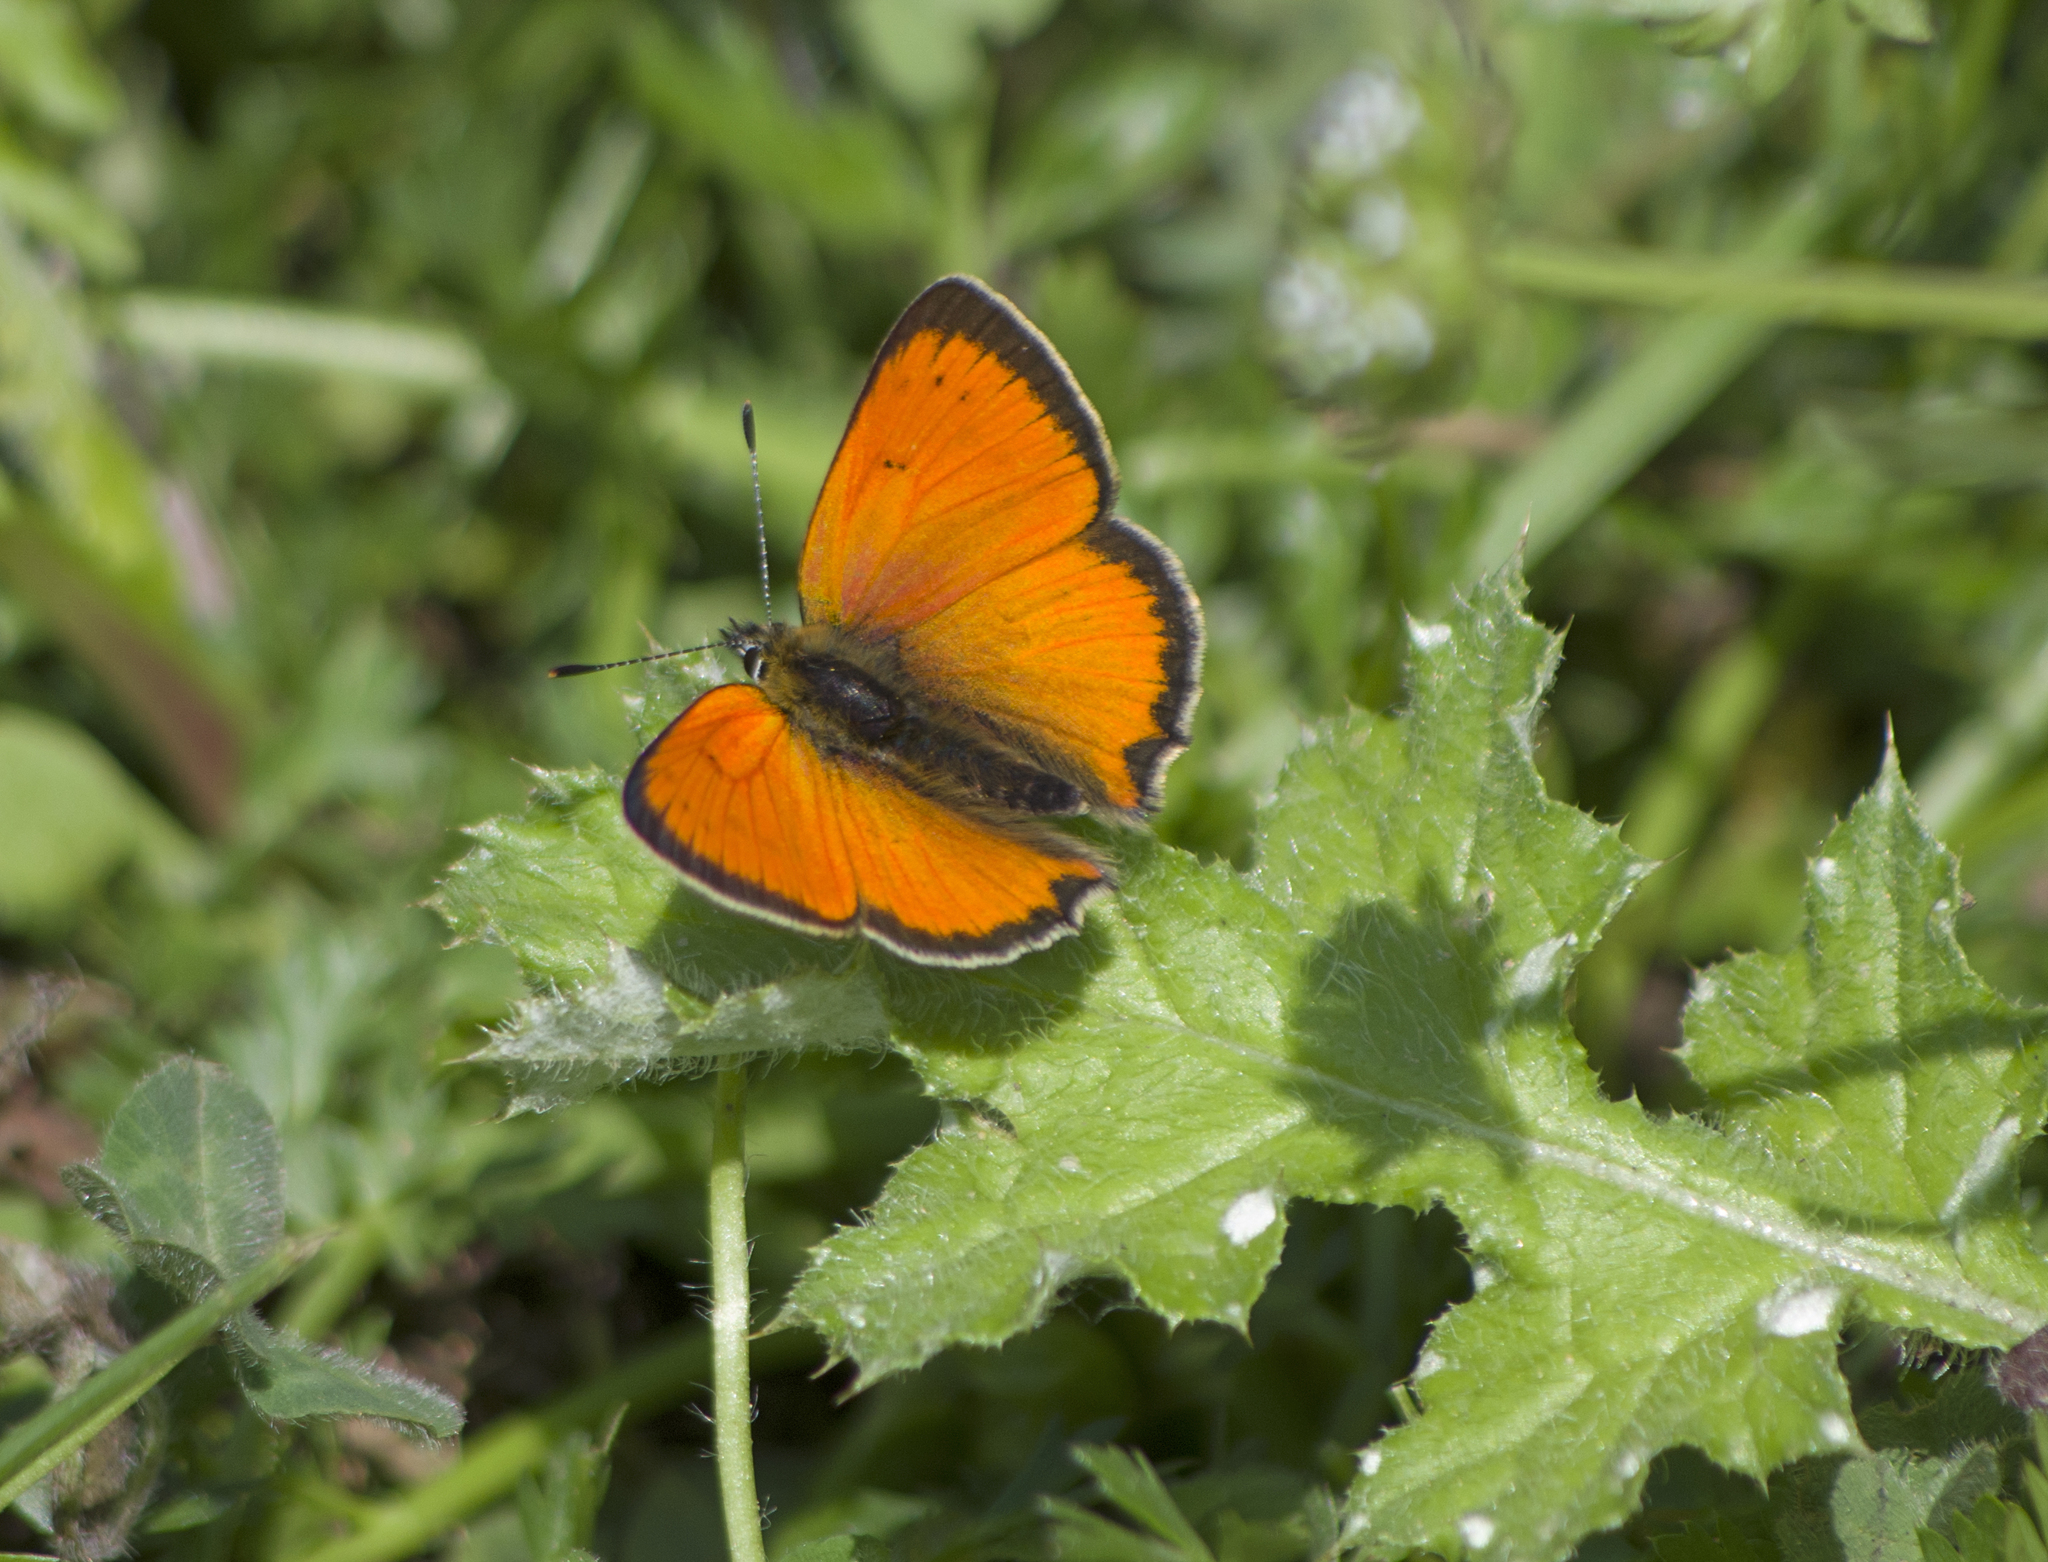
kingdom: Animalia
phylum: Arthropoda
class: Insecta
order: Lepidoptera
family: Lycaenidae
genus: Polyommatus
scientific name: Polyommatus ottomanus
